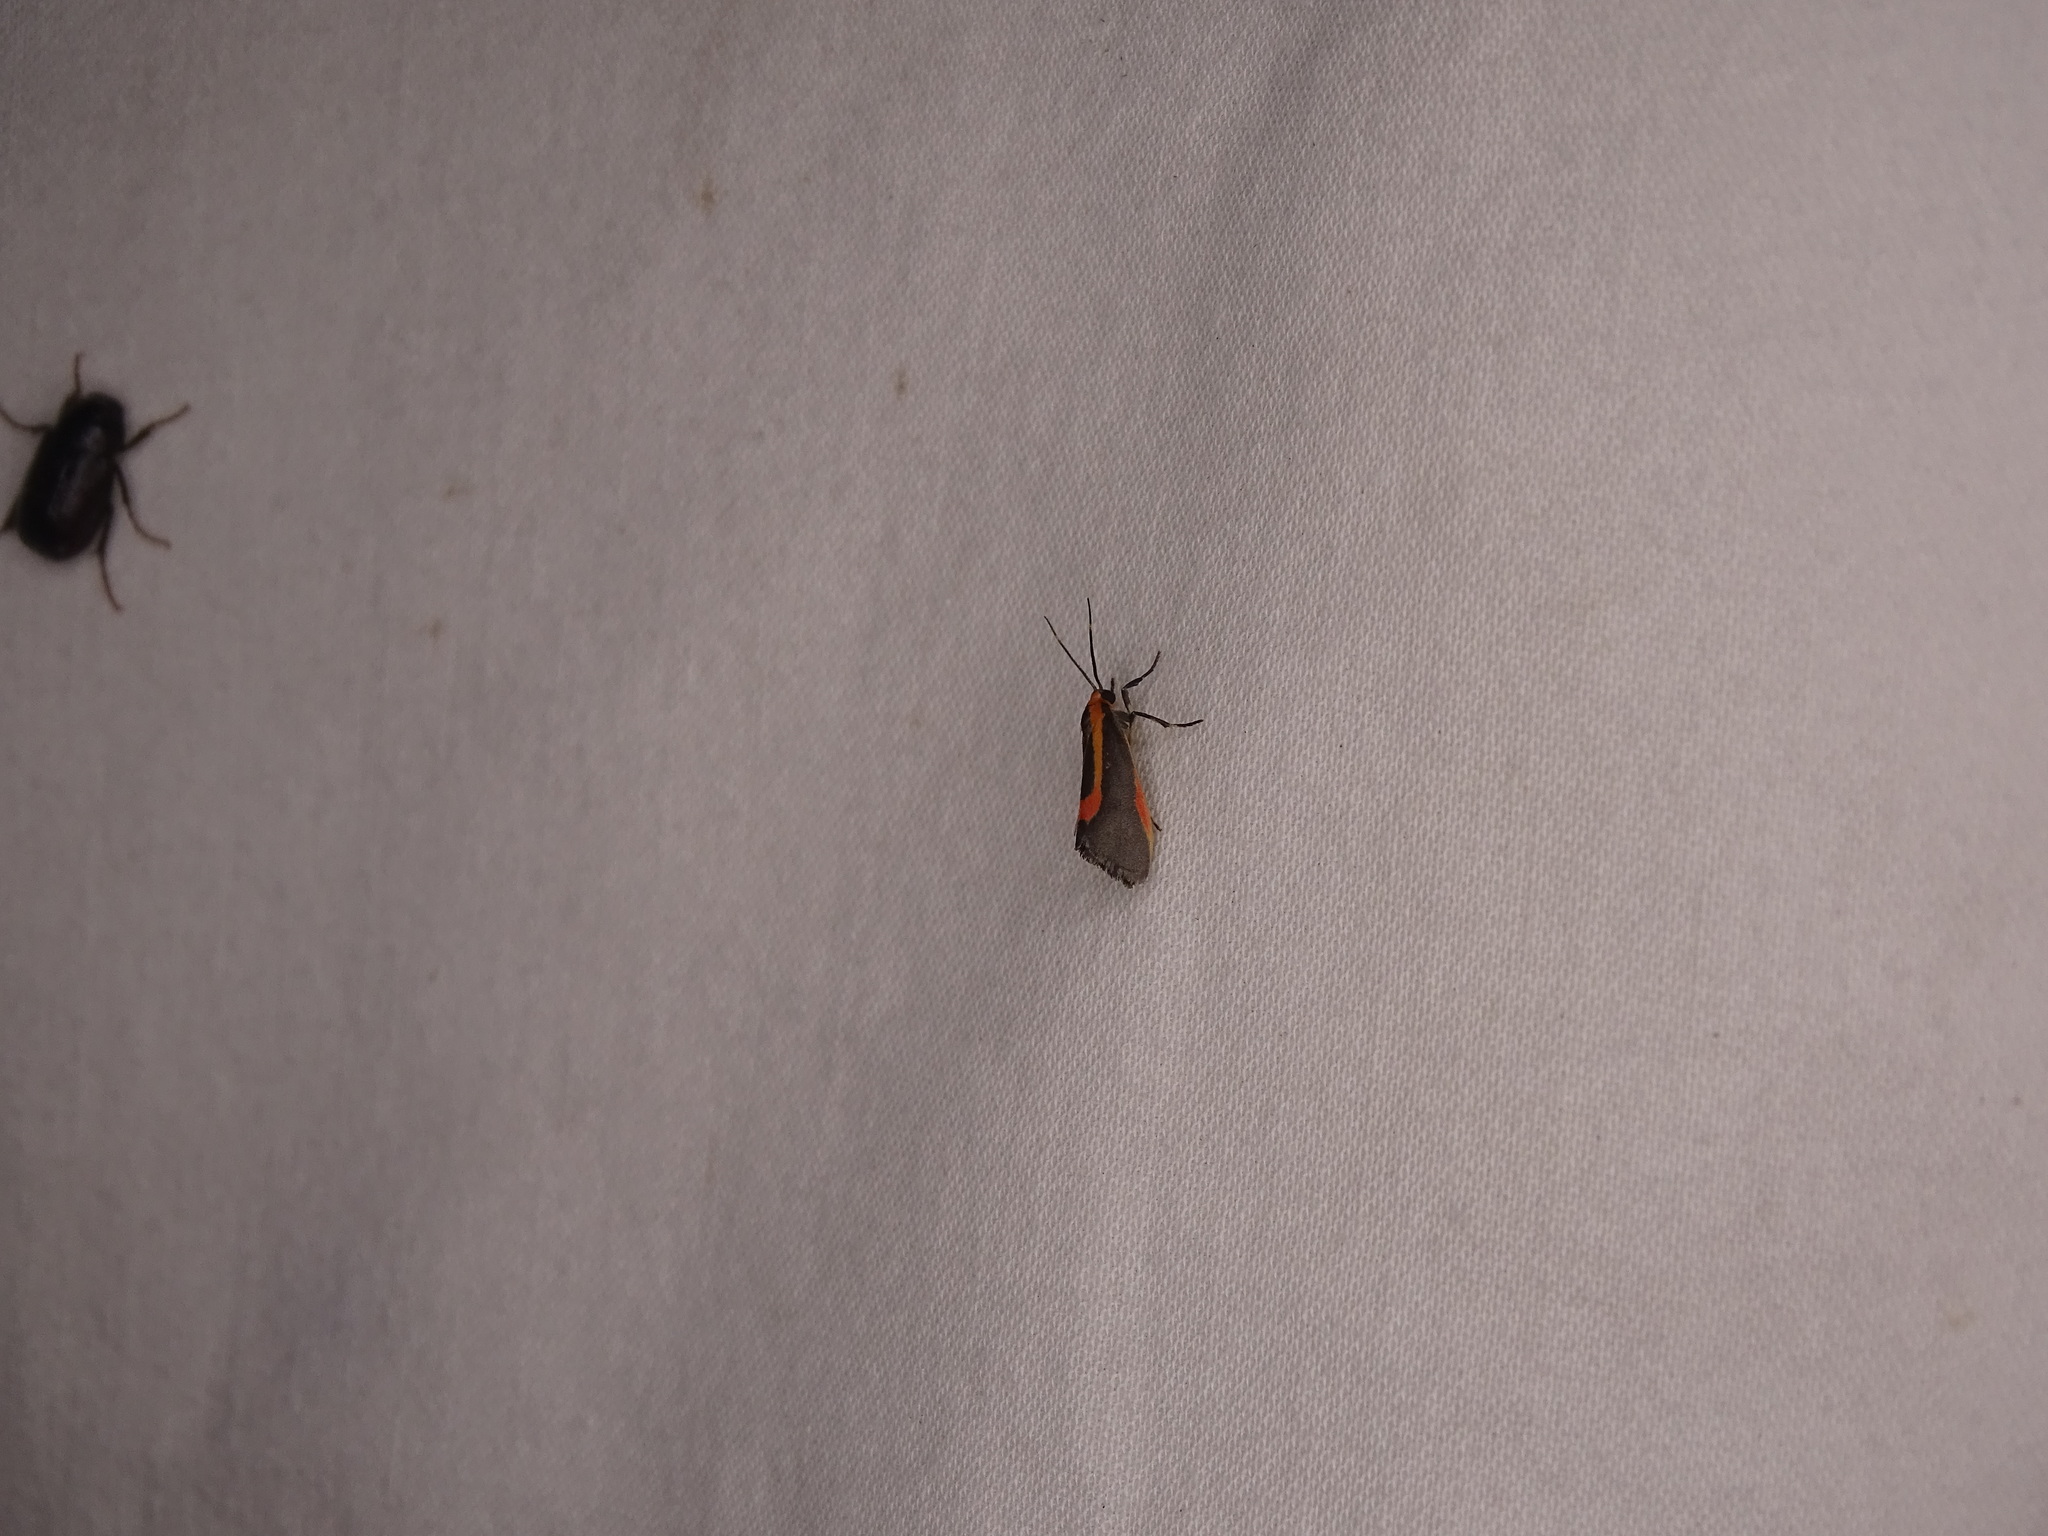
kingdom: Animalia
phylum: Arthropoda
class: Insecta
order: Lepidoptera
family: Erebidae
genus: Cisthene
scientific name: Cisthene subjecta
